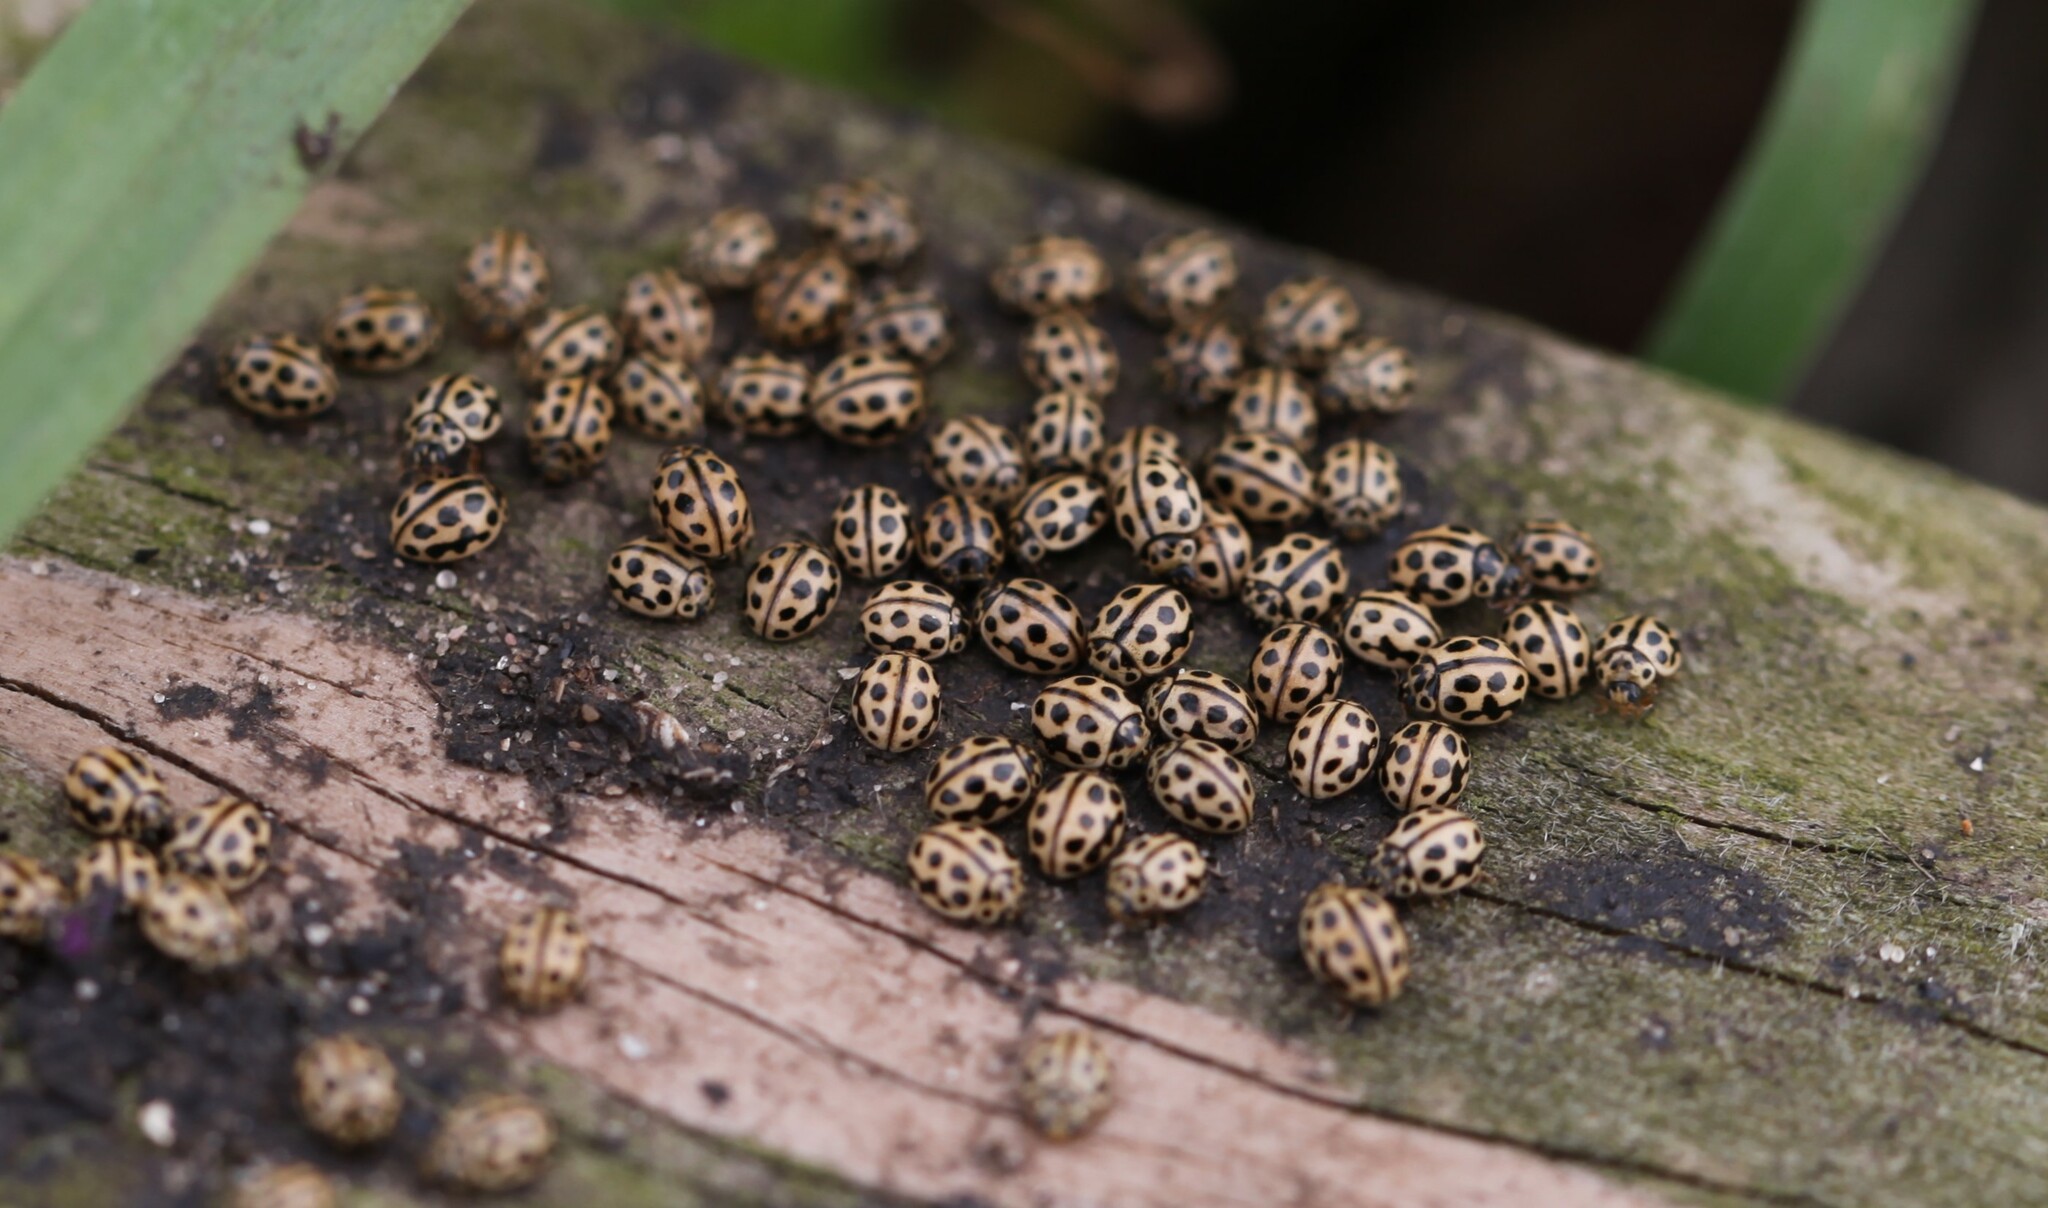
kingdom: Animalia
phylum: Arthropoda
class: Insecta
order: Coleoptera
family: Coccinellidae
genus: Tytthaspis
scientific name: Tytthaspis sedecimpunctata
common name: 16-spot ladybird
